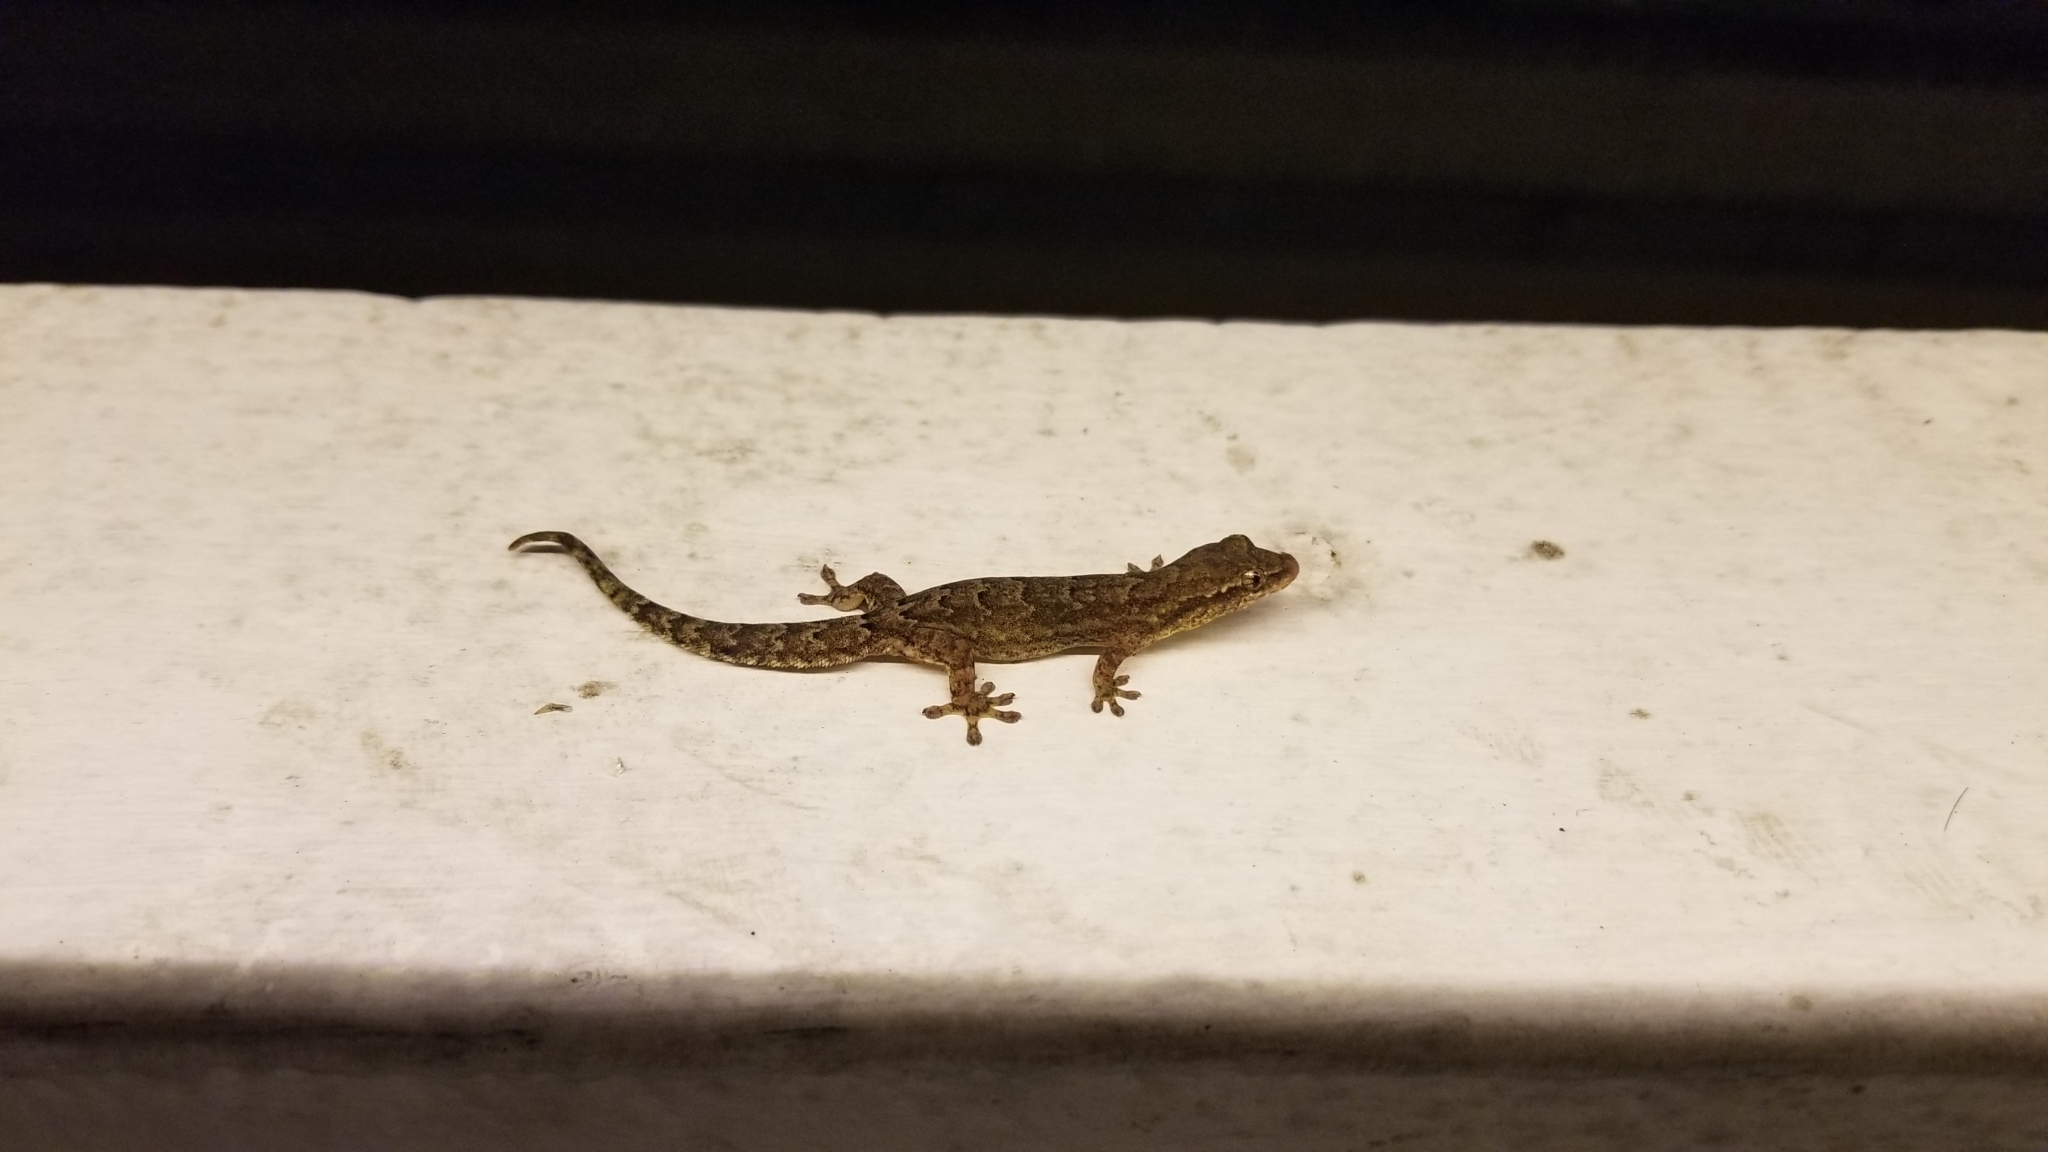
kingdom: Animalia
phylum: Chordata
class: Squamata
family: Gekkonidae
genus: Lepidodactylus
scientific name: Lepidodactylus lugubris
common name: Mourning gecko
